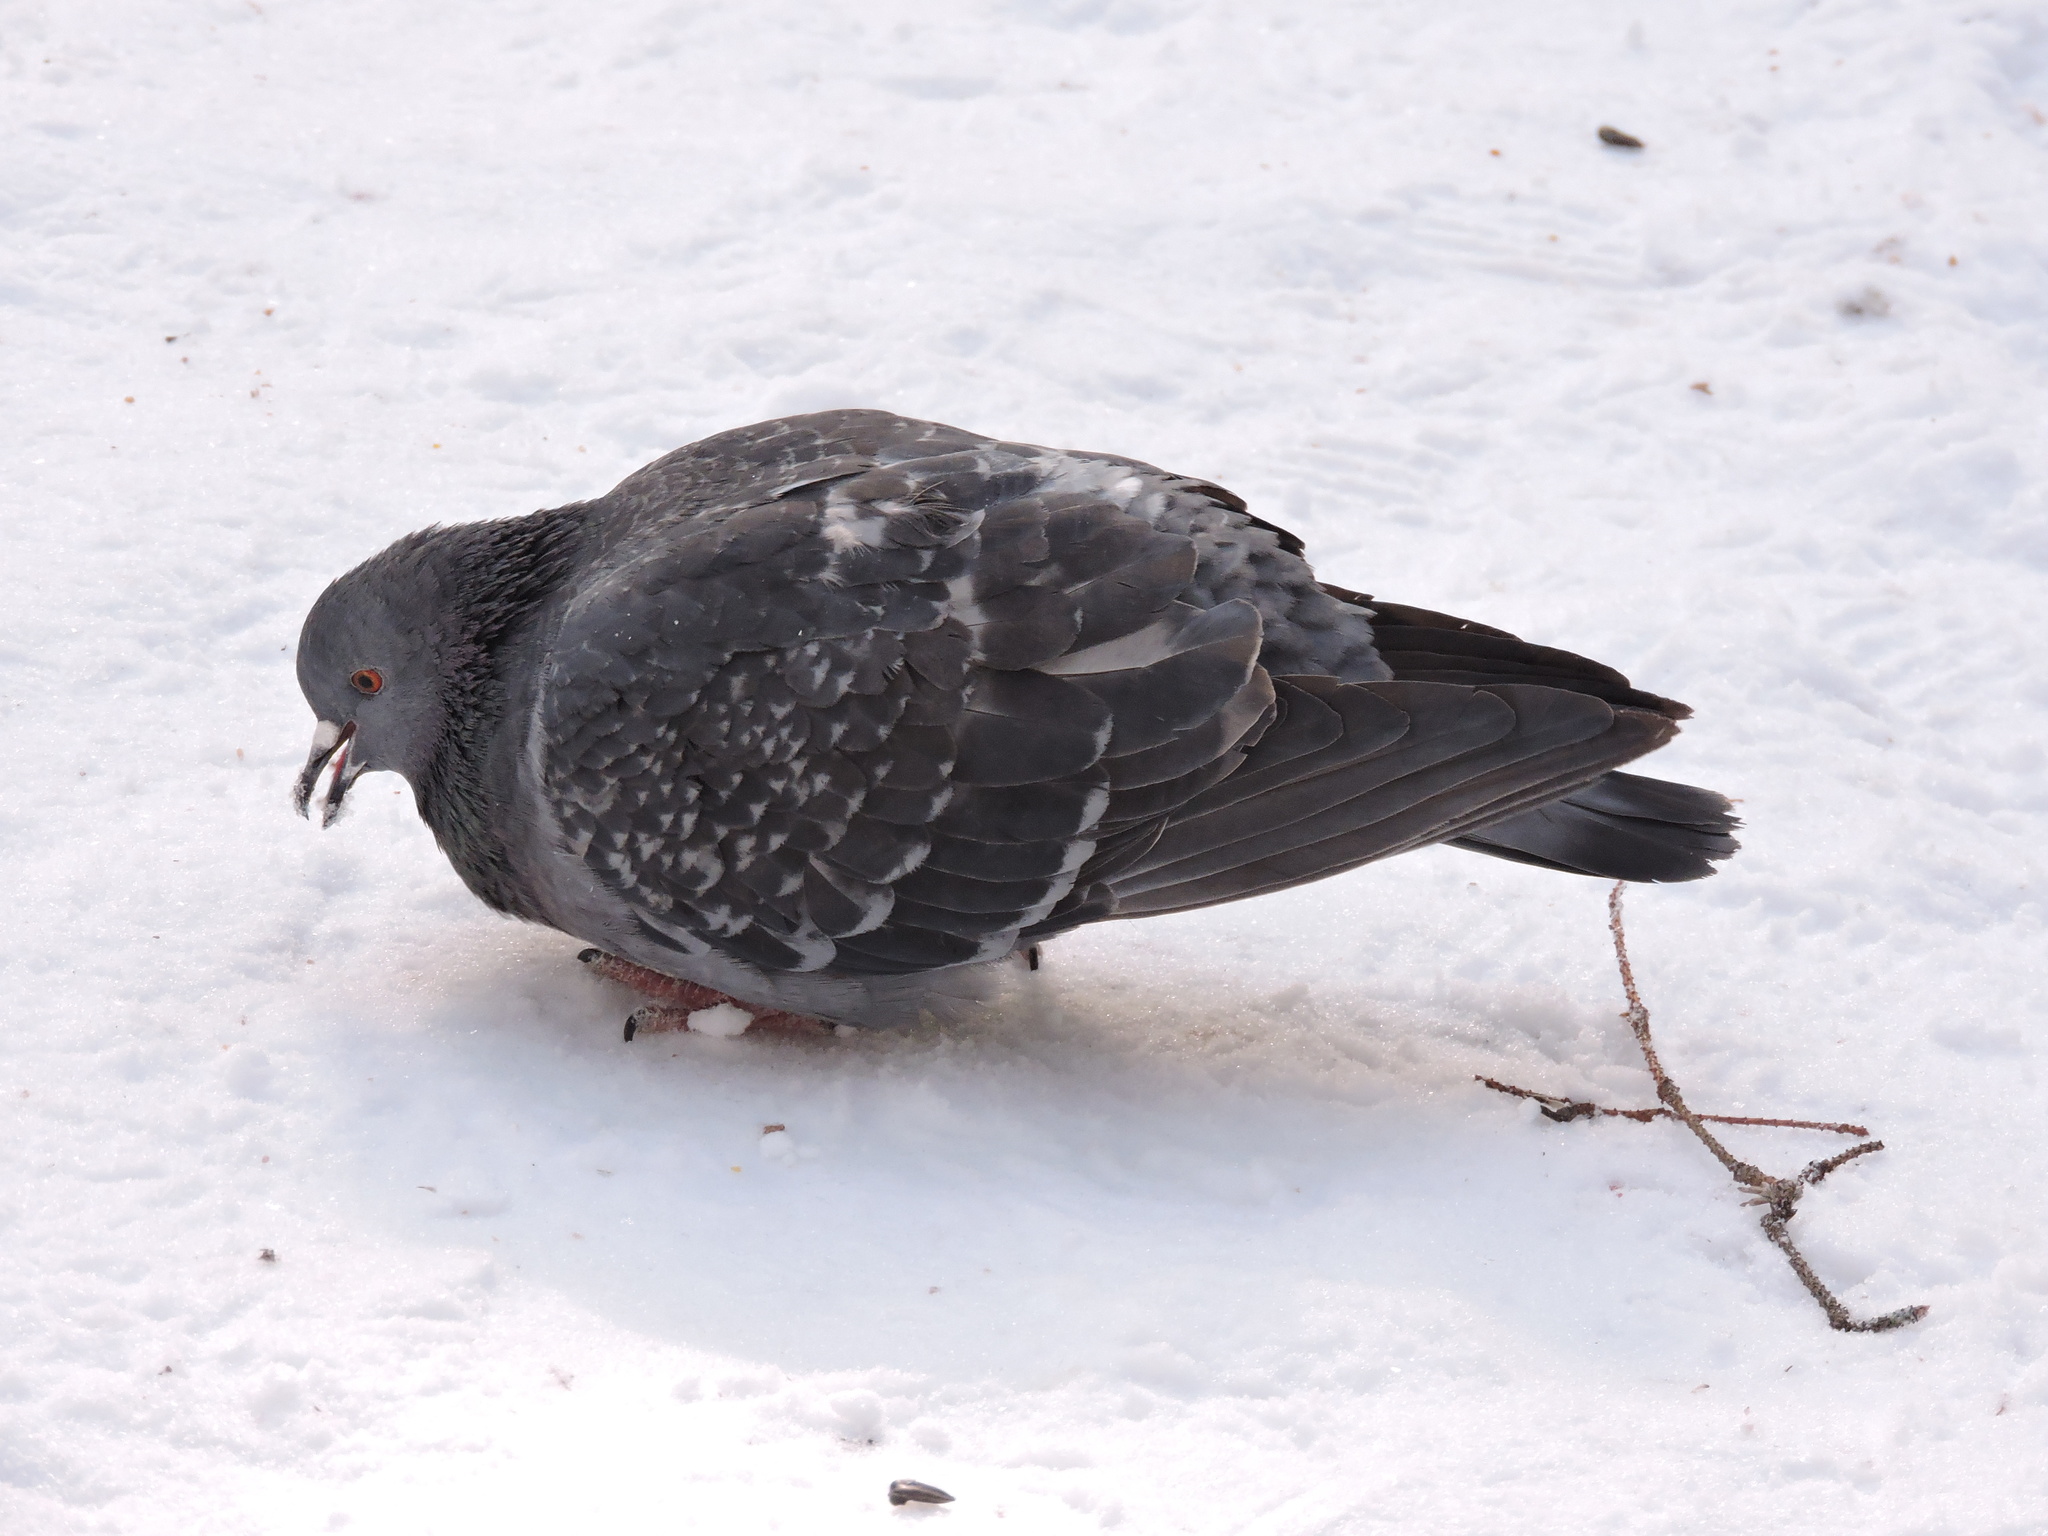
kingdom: Animalia
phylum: Chordata
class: Aves
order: Columbiformes
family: Columbidae
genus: Columba
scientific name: Columba livia
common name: Rock pigeon
